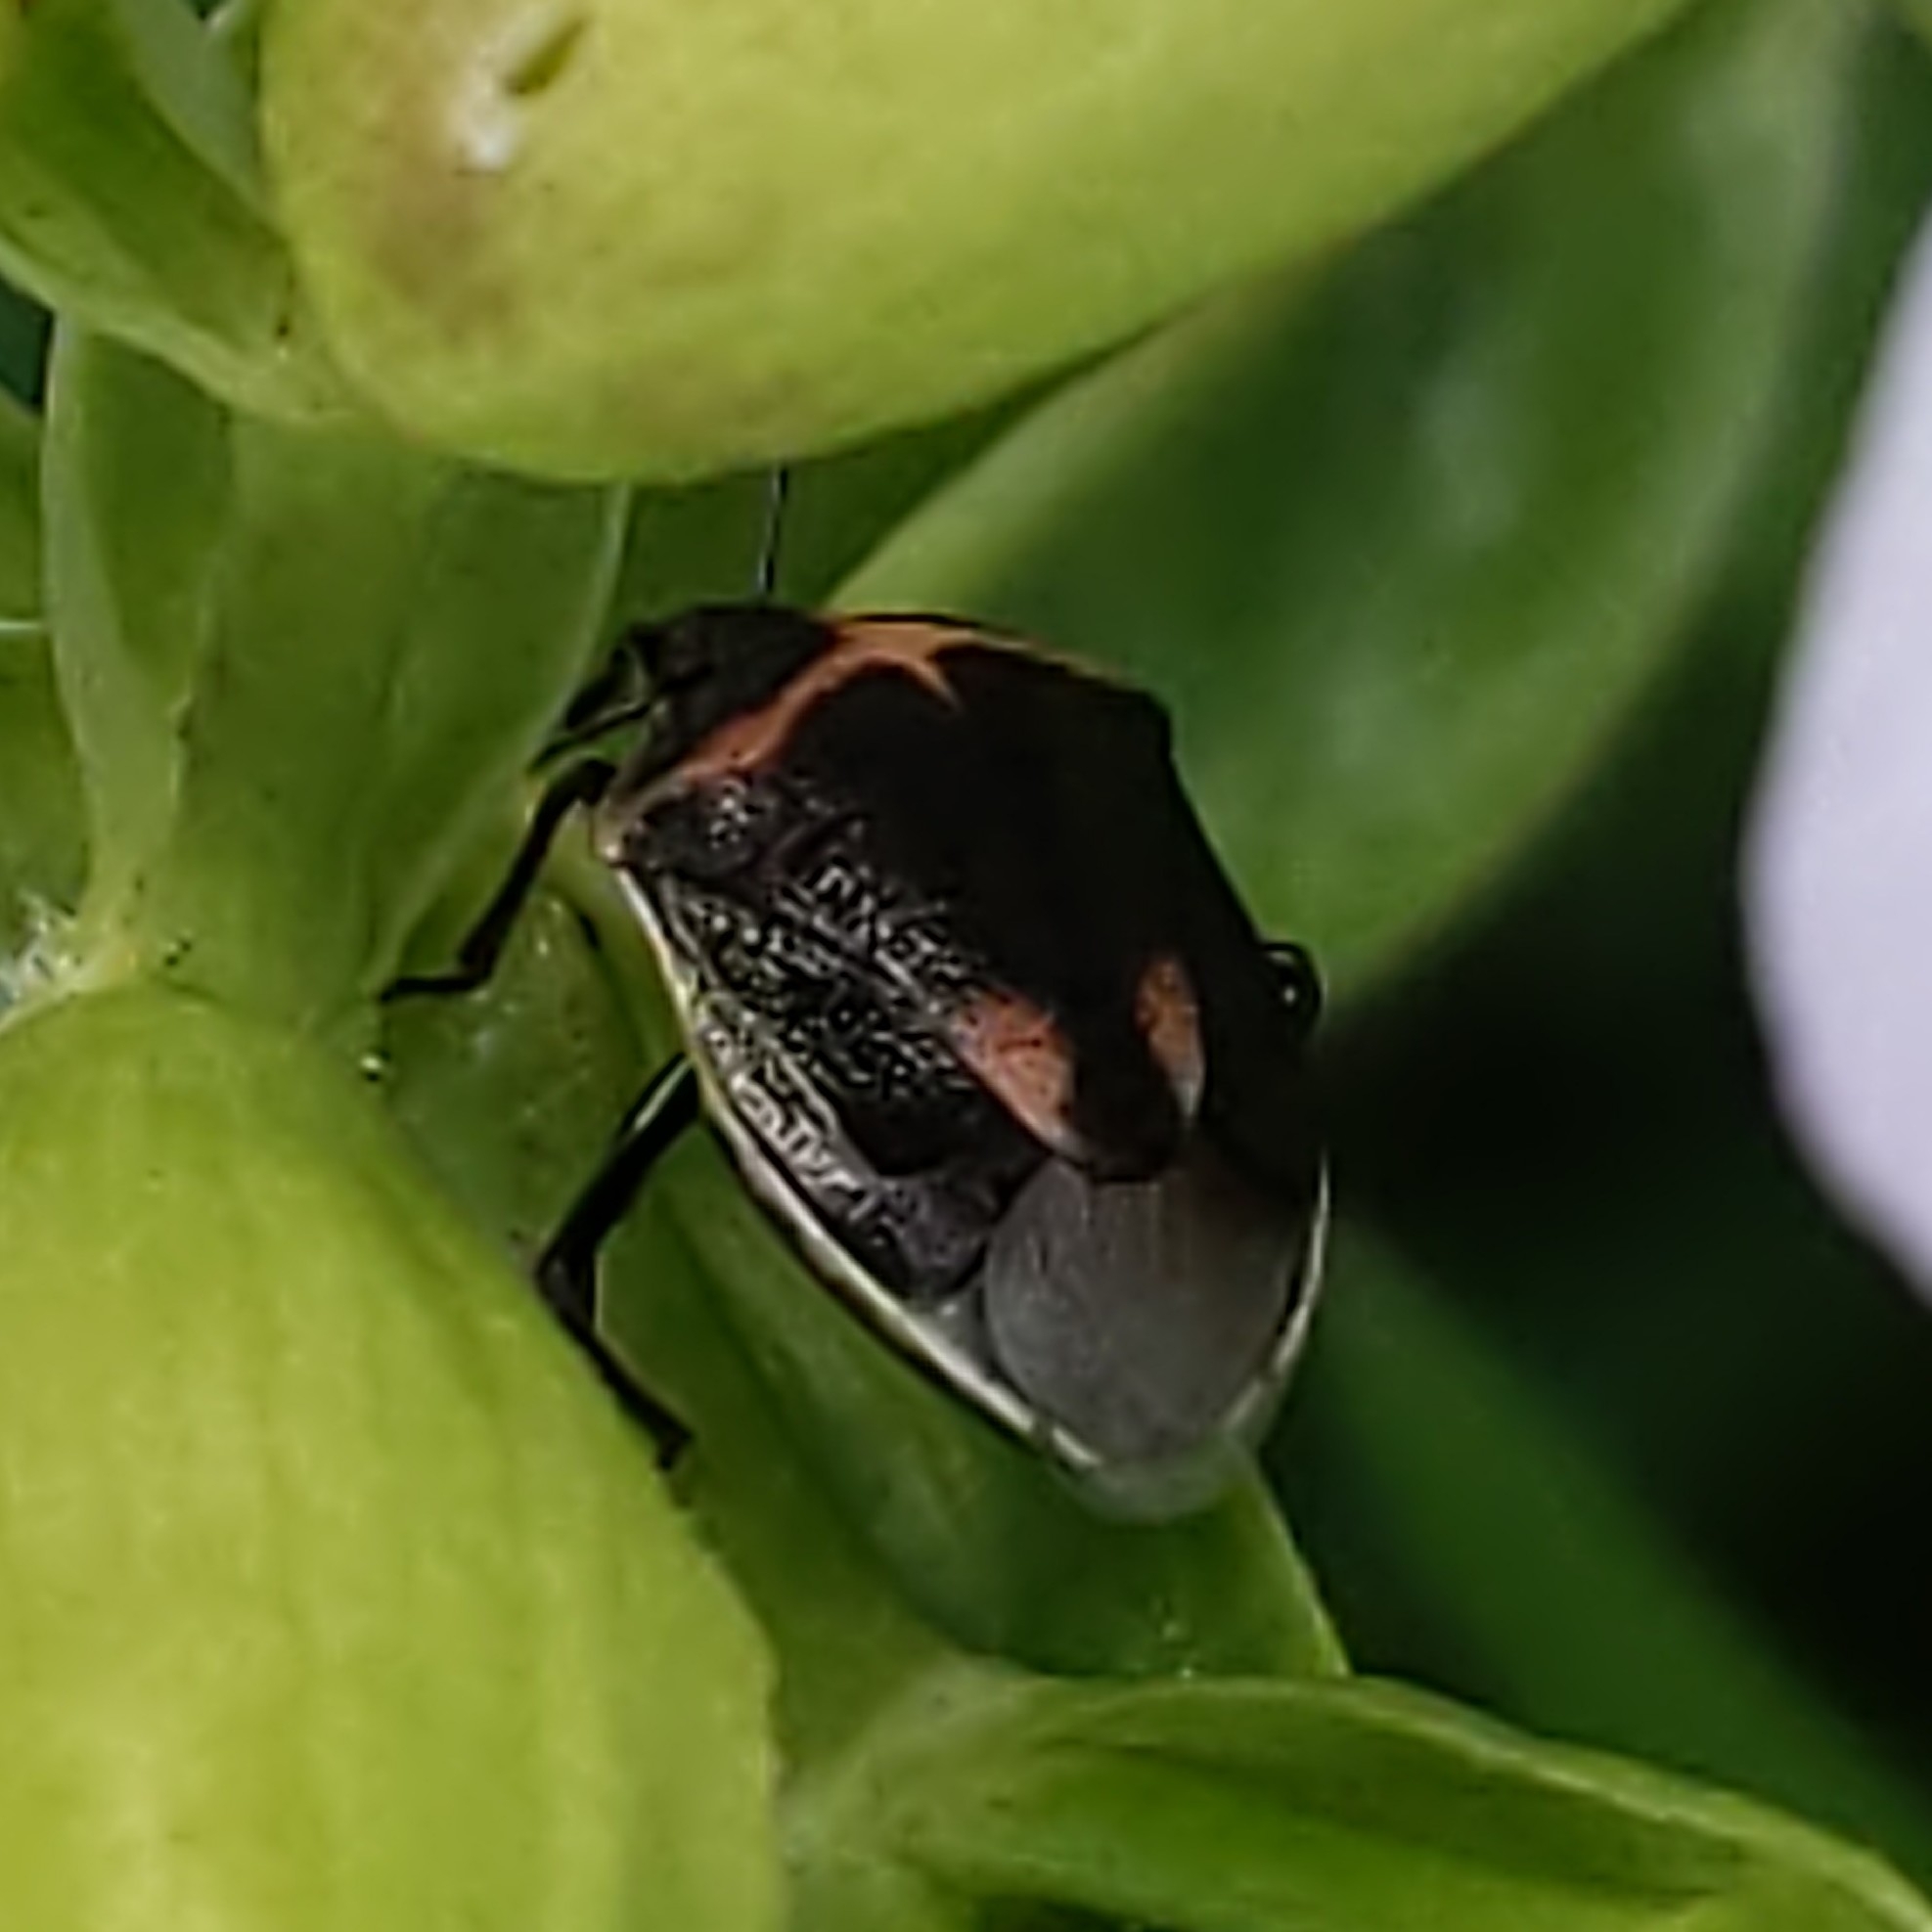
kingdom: Animalia
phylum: Arthropoda
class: Insecta
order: Hemiptera
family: Pentatomidae
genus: Cosmopepla
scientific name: Cosmopepla lintneriana
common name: Twice-stabbed stink bug
